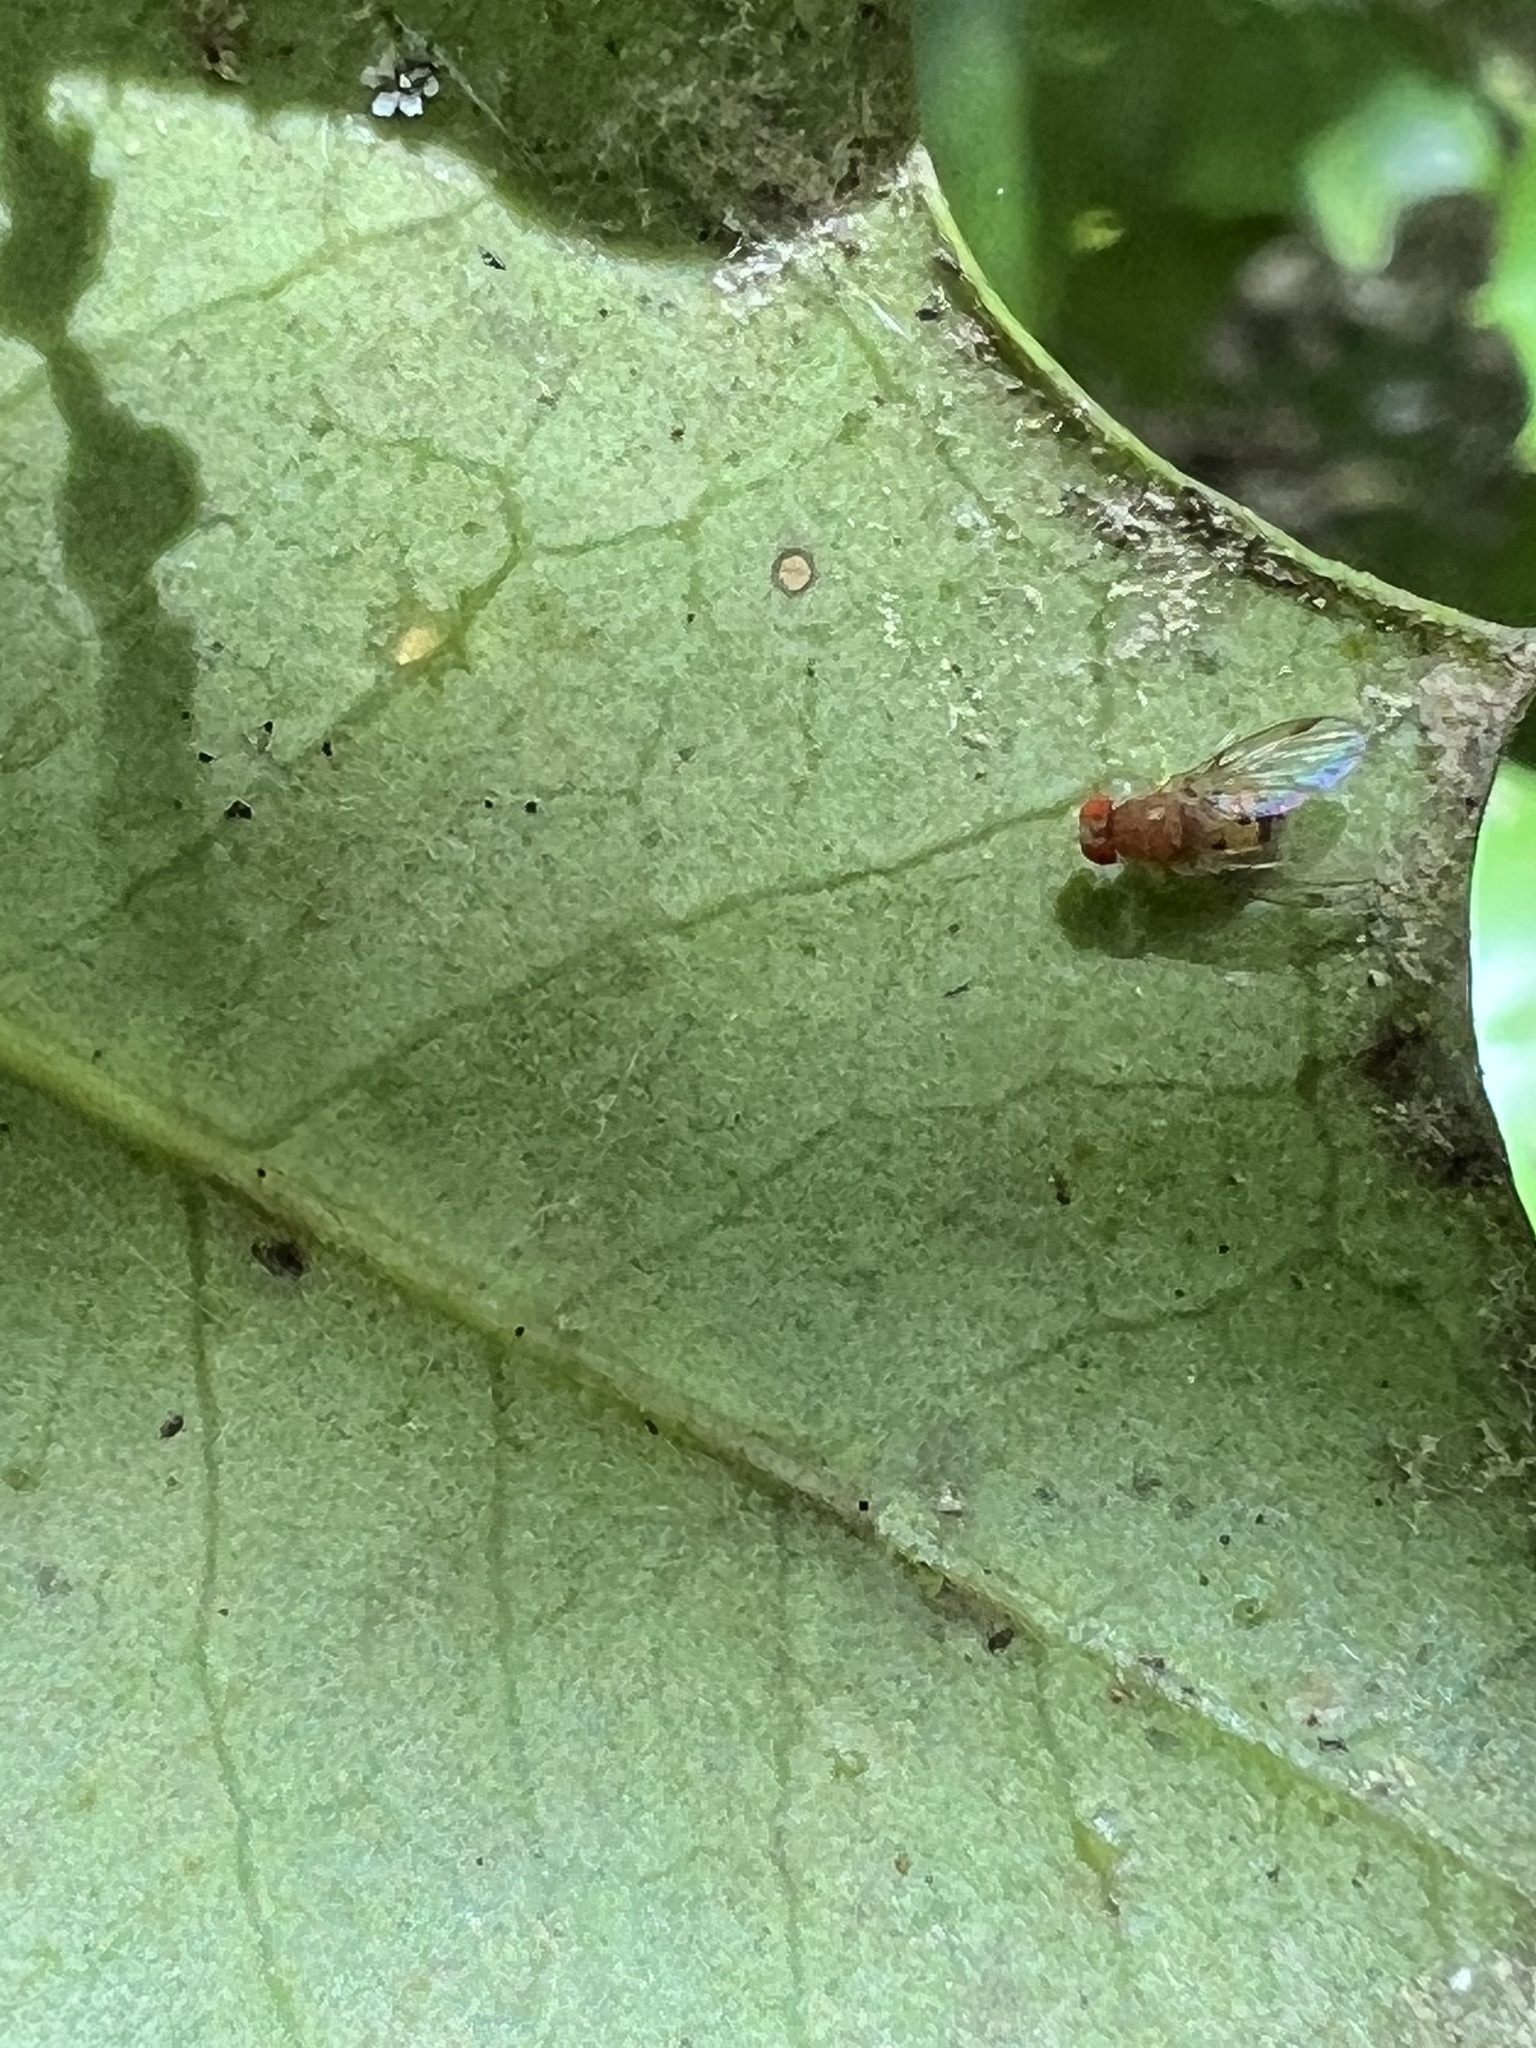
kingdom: Animalia
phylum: Arthropoda
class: Insecta
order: Diptera
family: Drosophilidae
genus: Leucophenga
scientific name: Leucophenga varia
